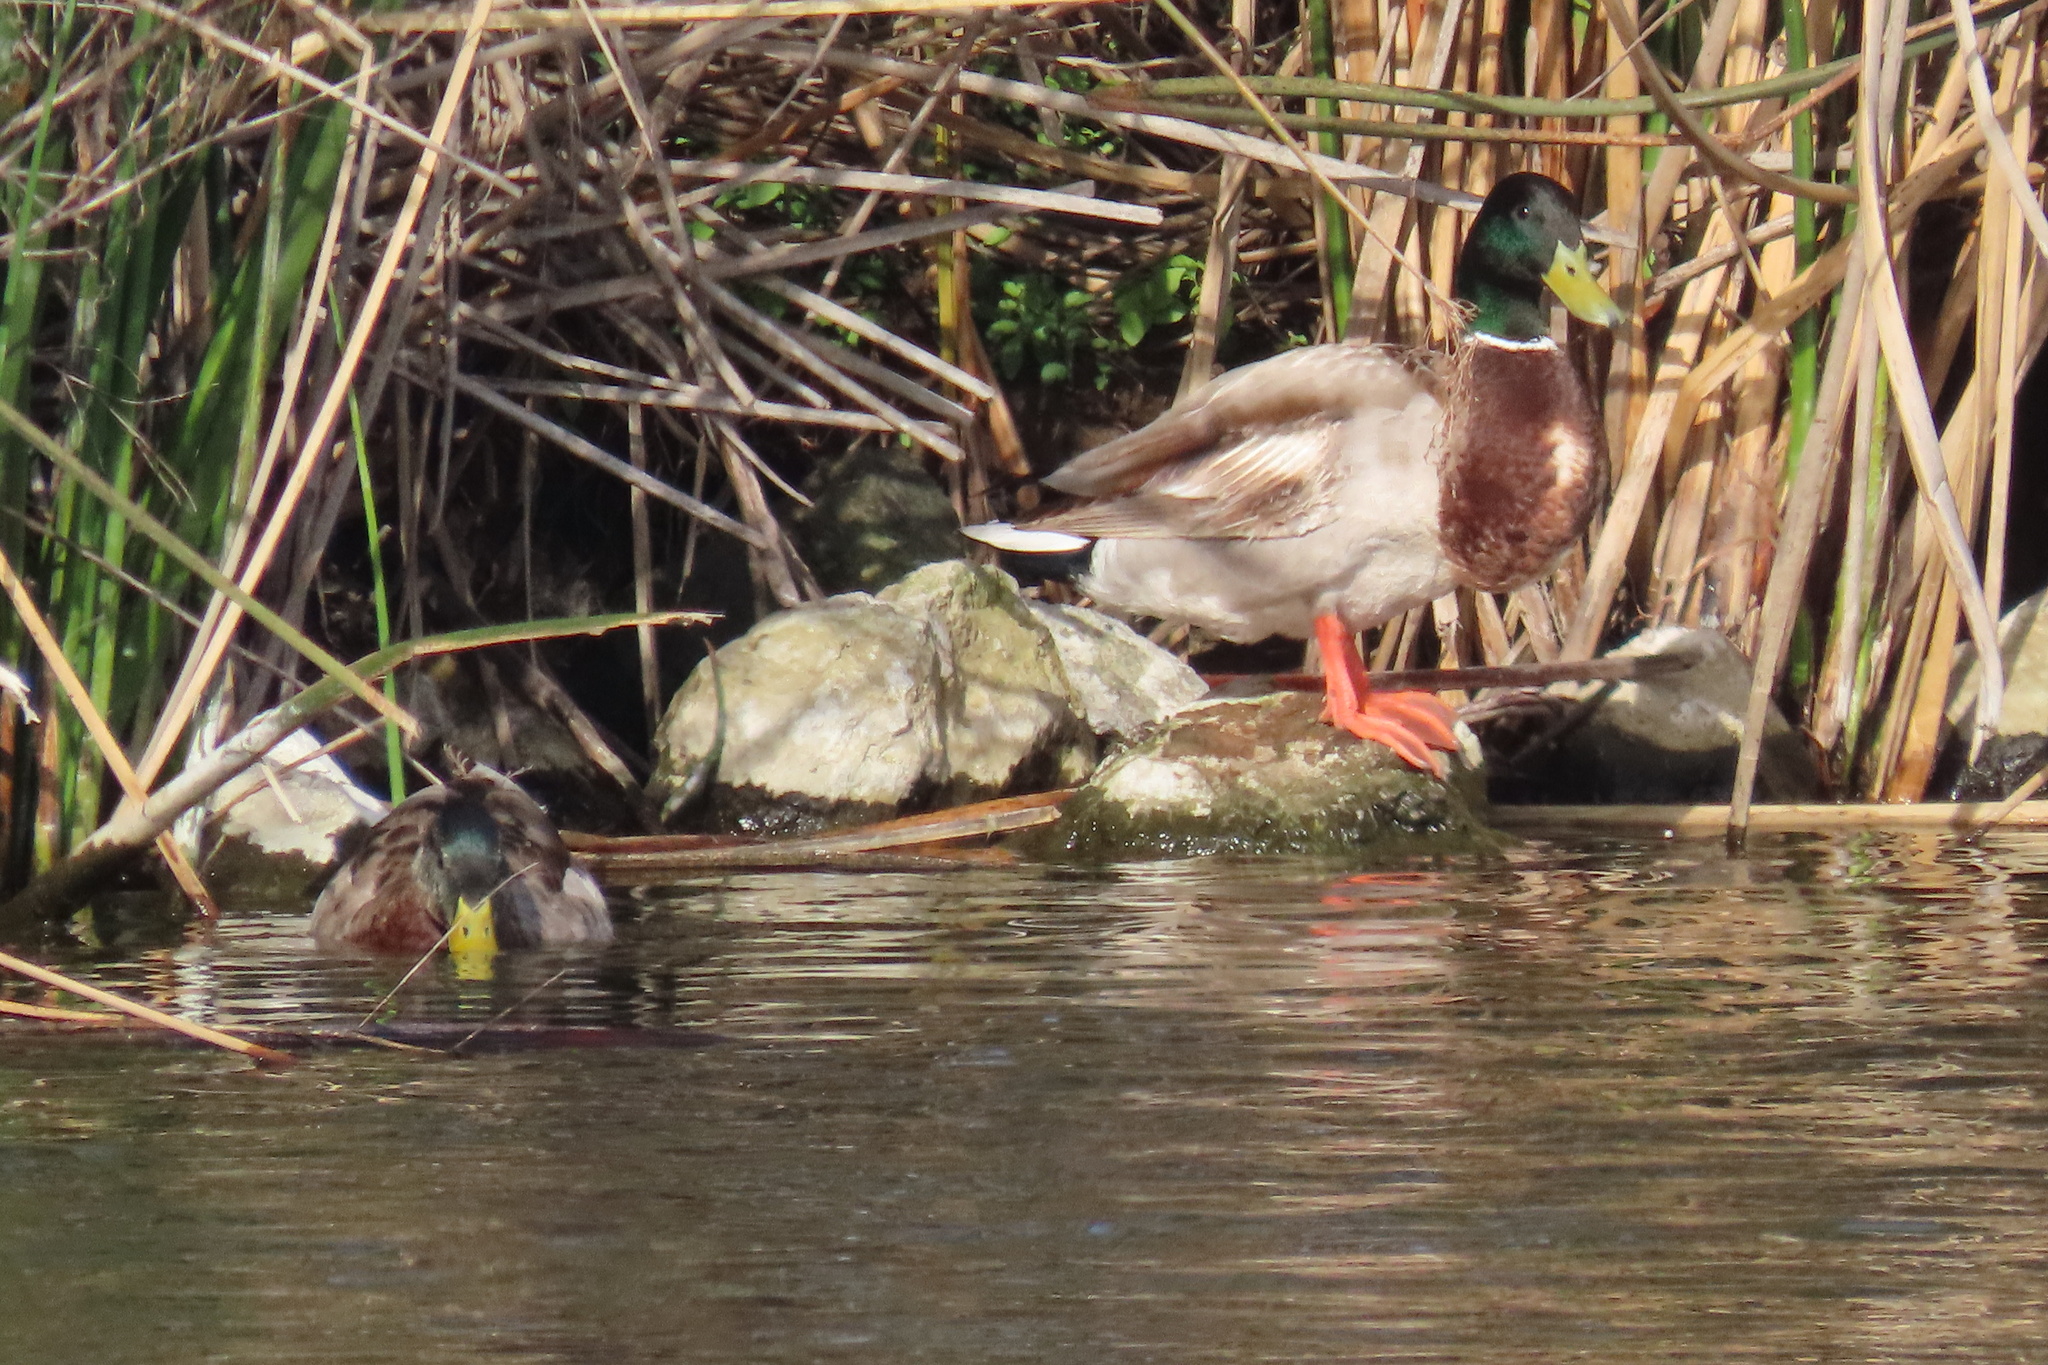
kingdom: Animalia
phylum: Chordata
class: Aves
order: Anseriformes
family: Anatidae
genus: Anas
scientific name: Anas platyrhynchos
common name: Mallard
